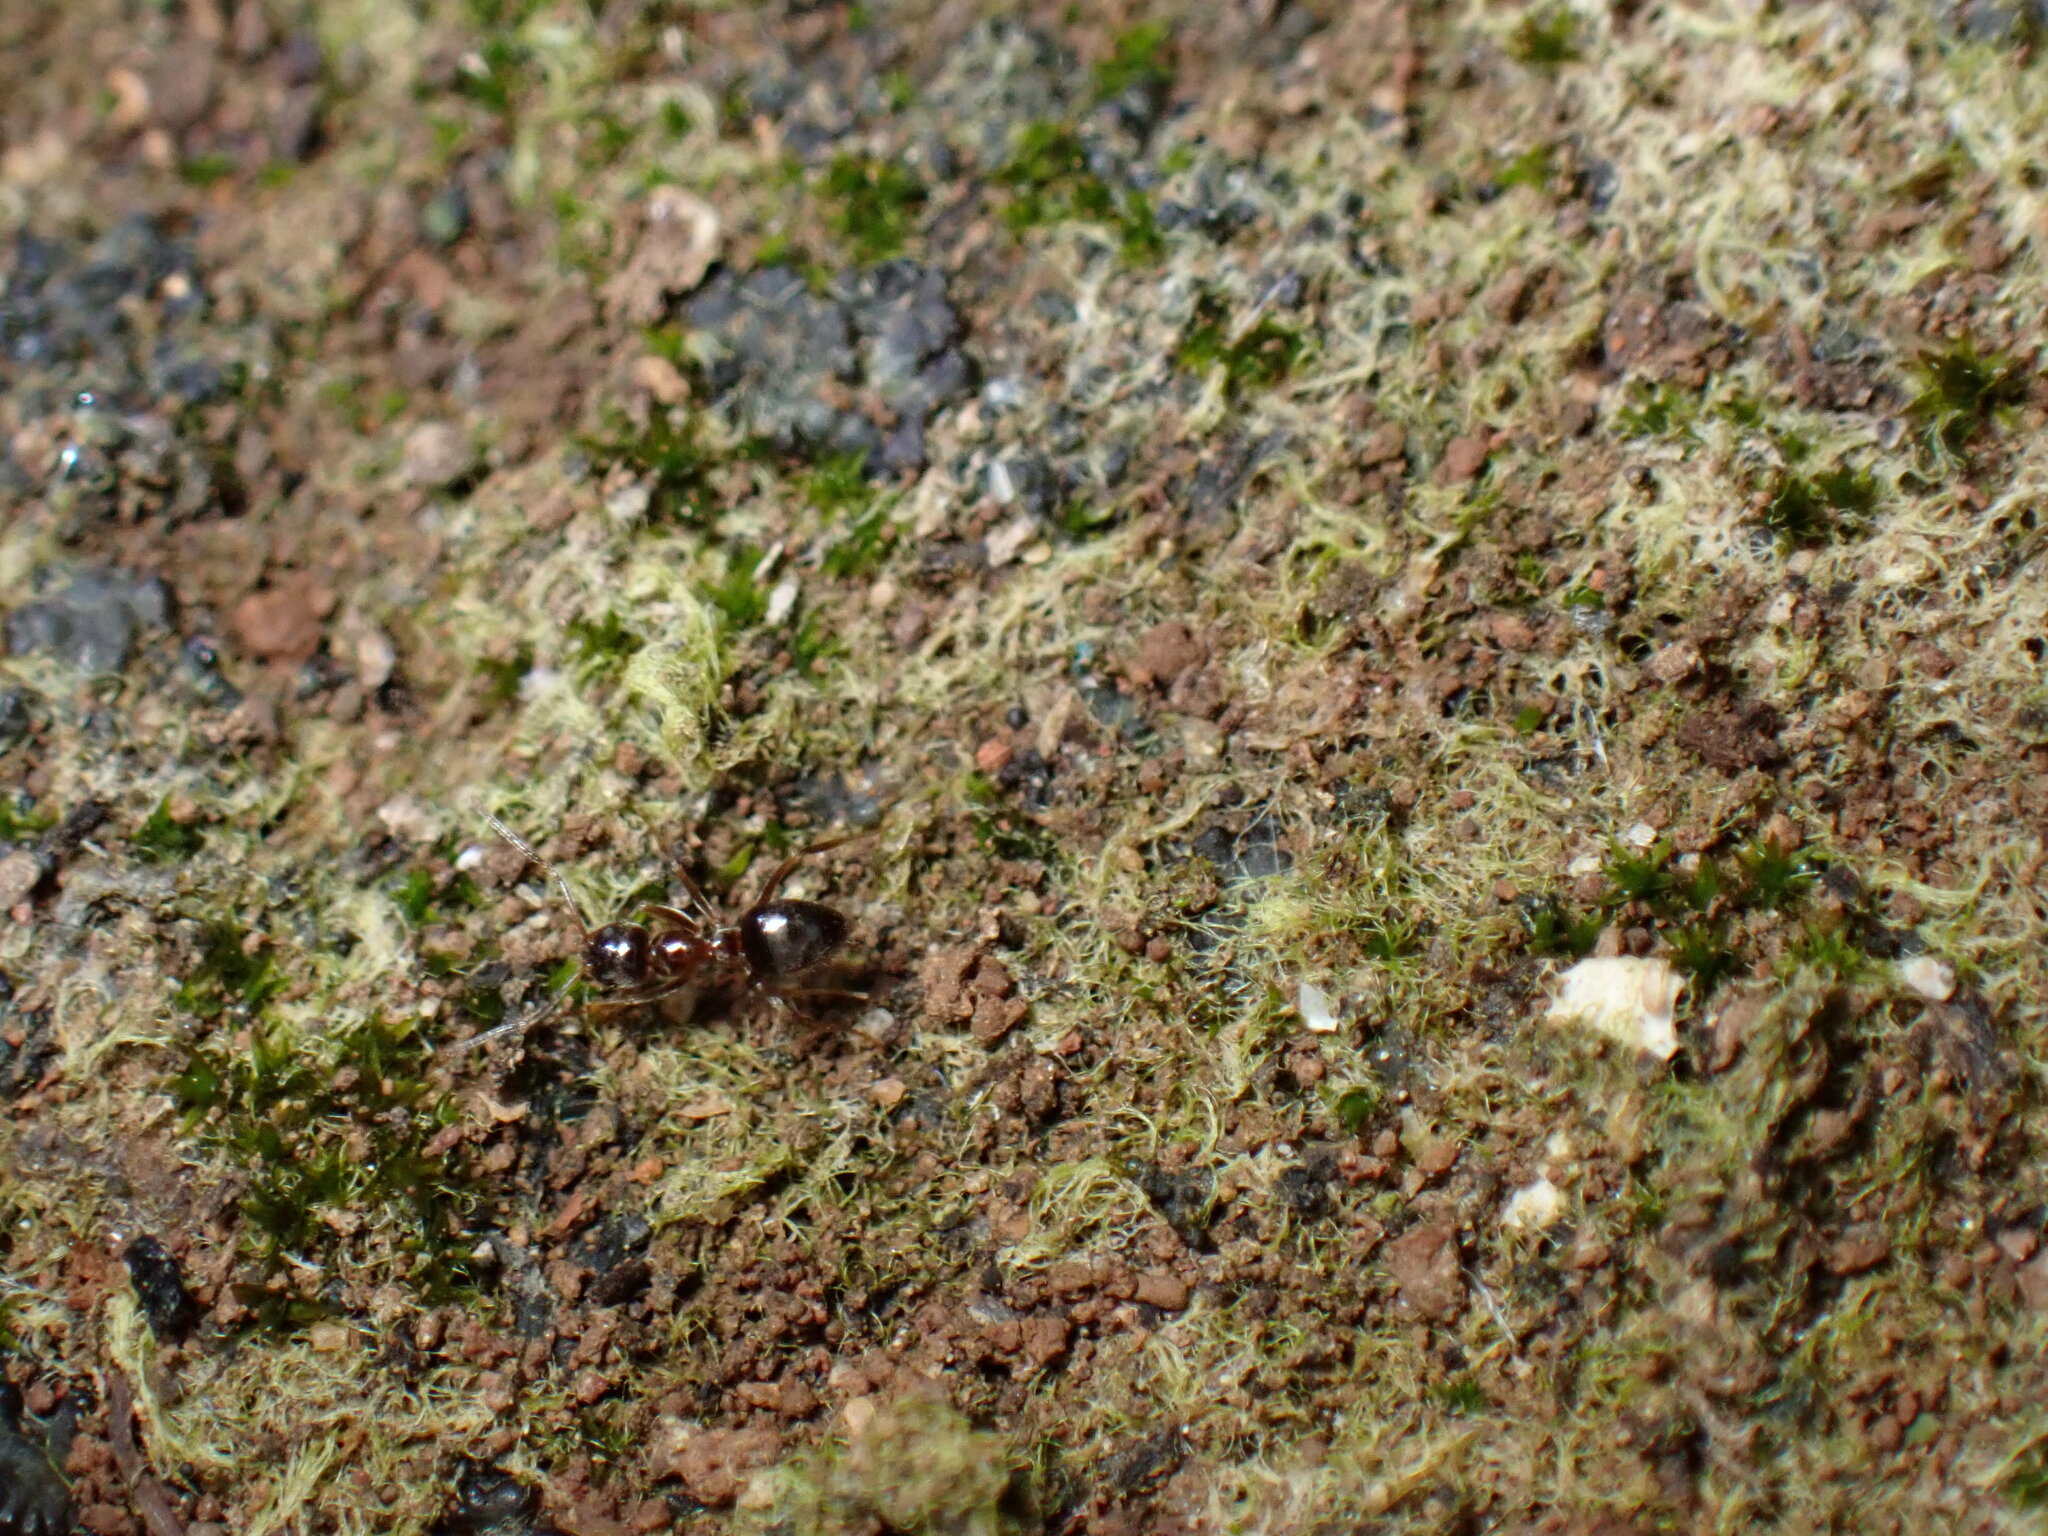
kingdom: Animalia
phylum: Arthropoda
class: Insecta
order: Hymenoptera
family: Formicidae
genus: Paratrechina
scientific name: Paratrechina jaegerskioeldi
